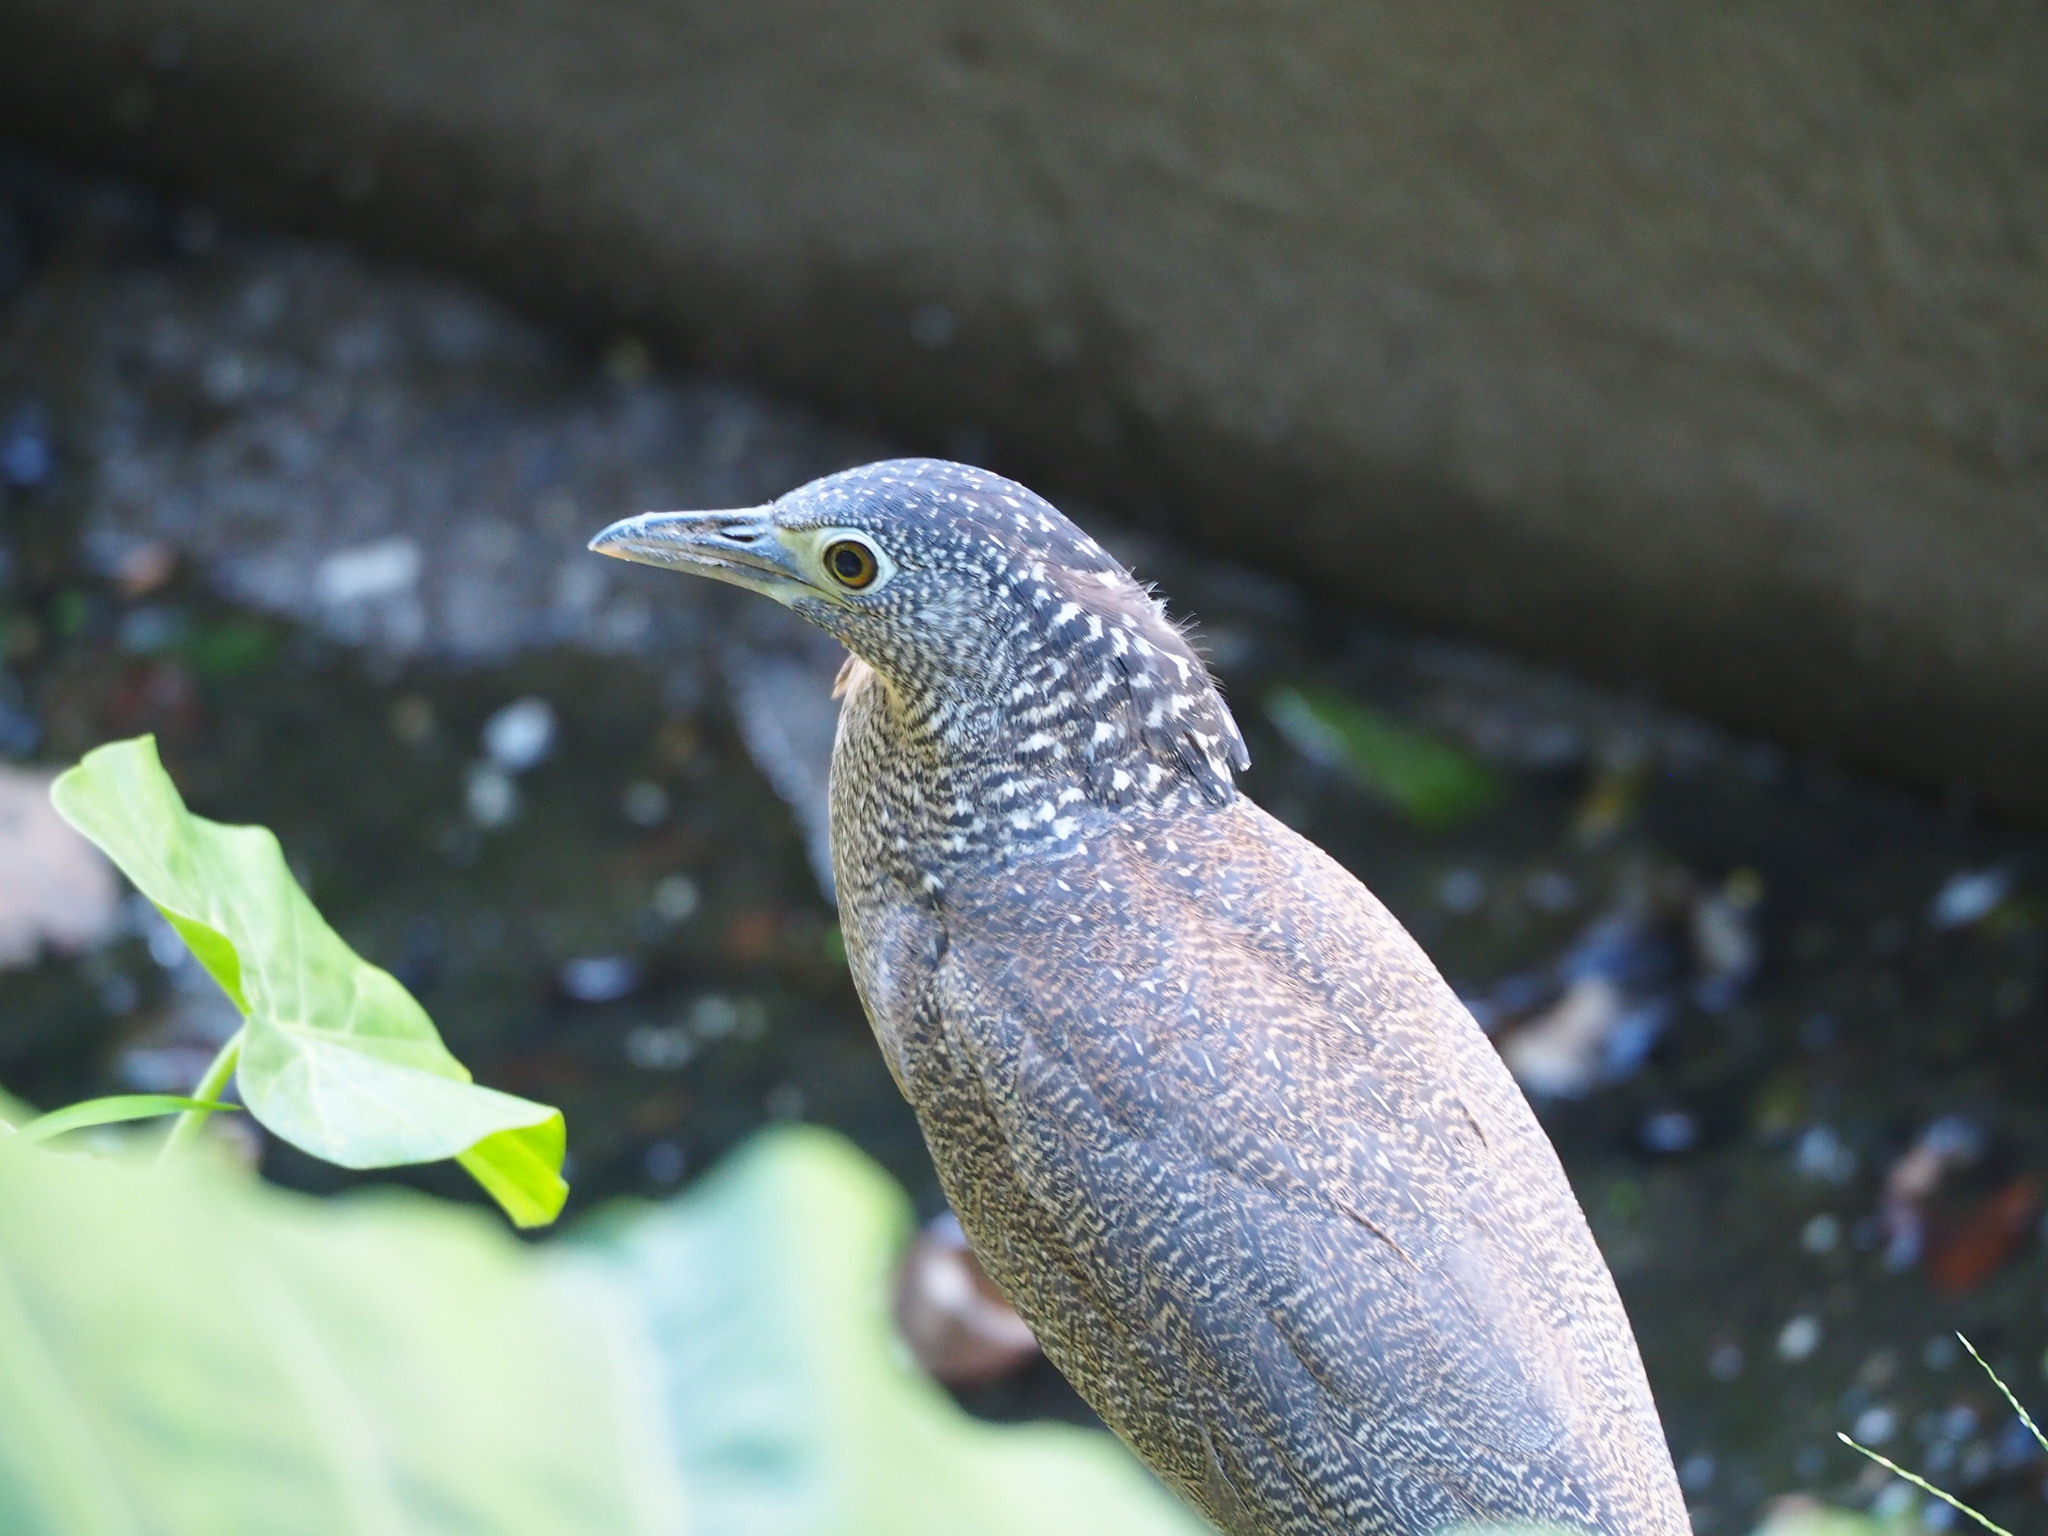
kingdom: Animalia
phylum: Chordata
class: Aves
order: Pelecaniformes
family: Ardeidae
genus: Gorsachius
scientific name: Gorsachius melanolophus
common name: Malayan night heron
